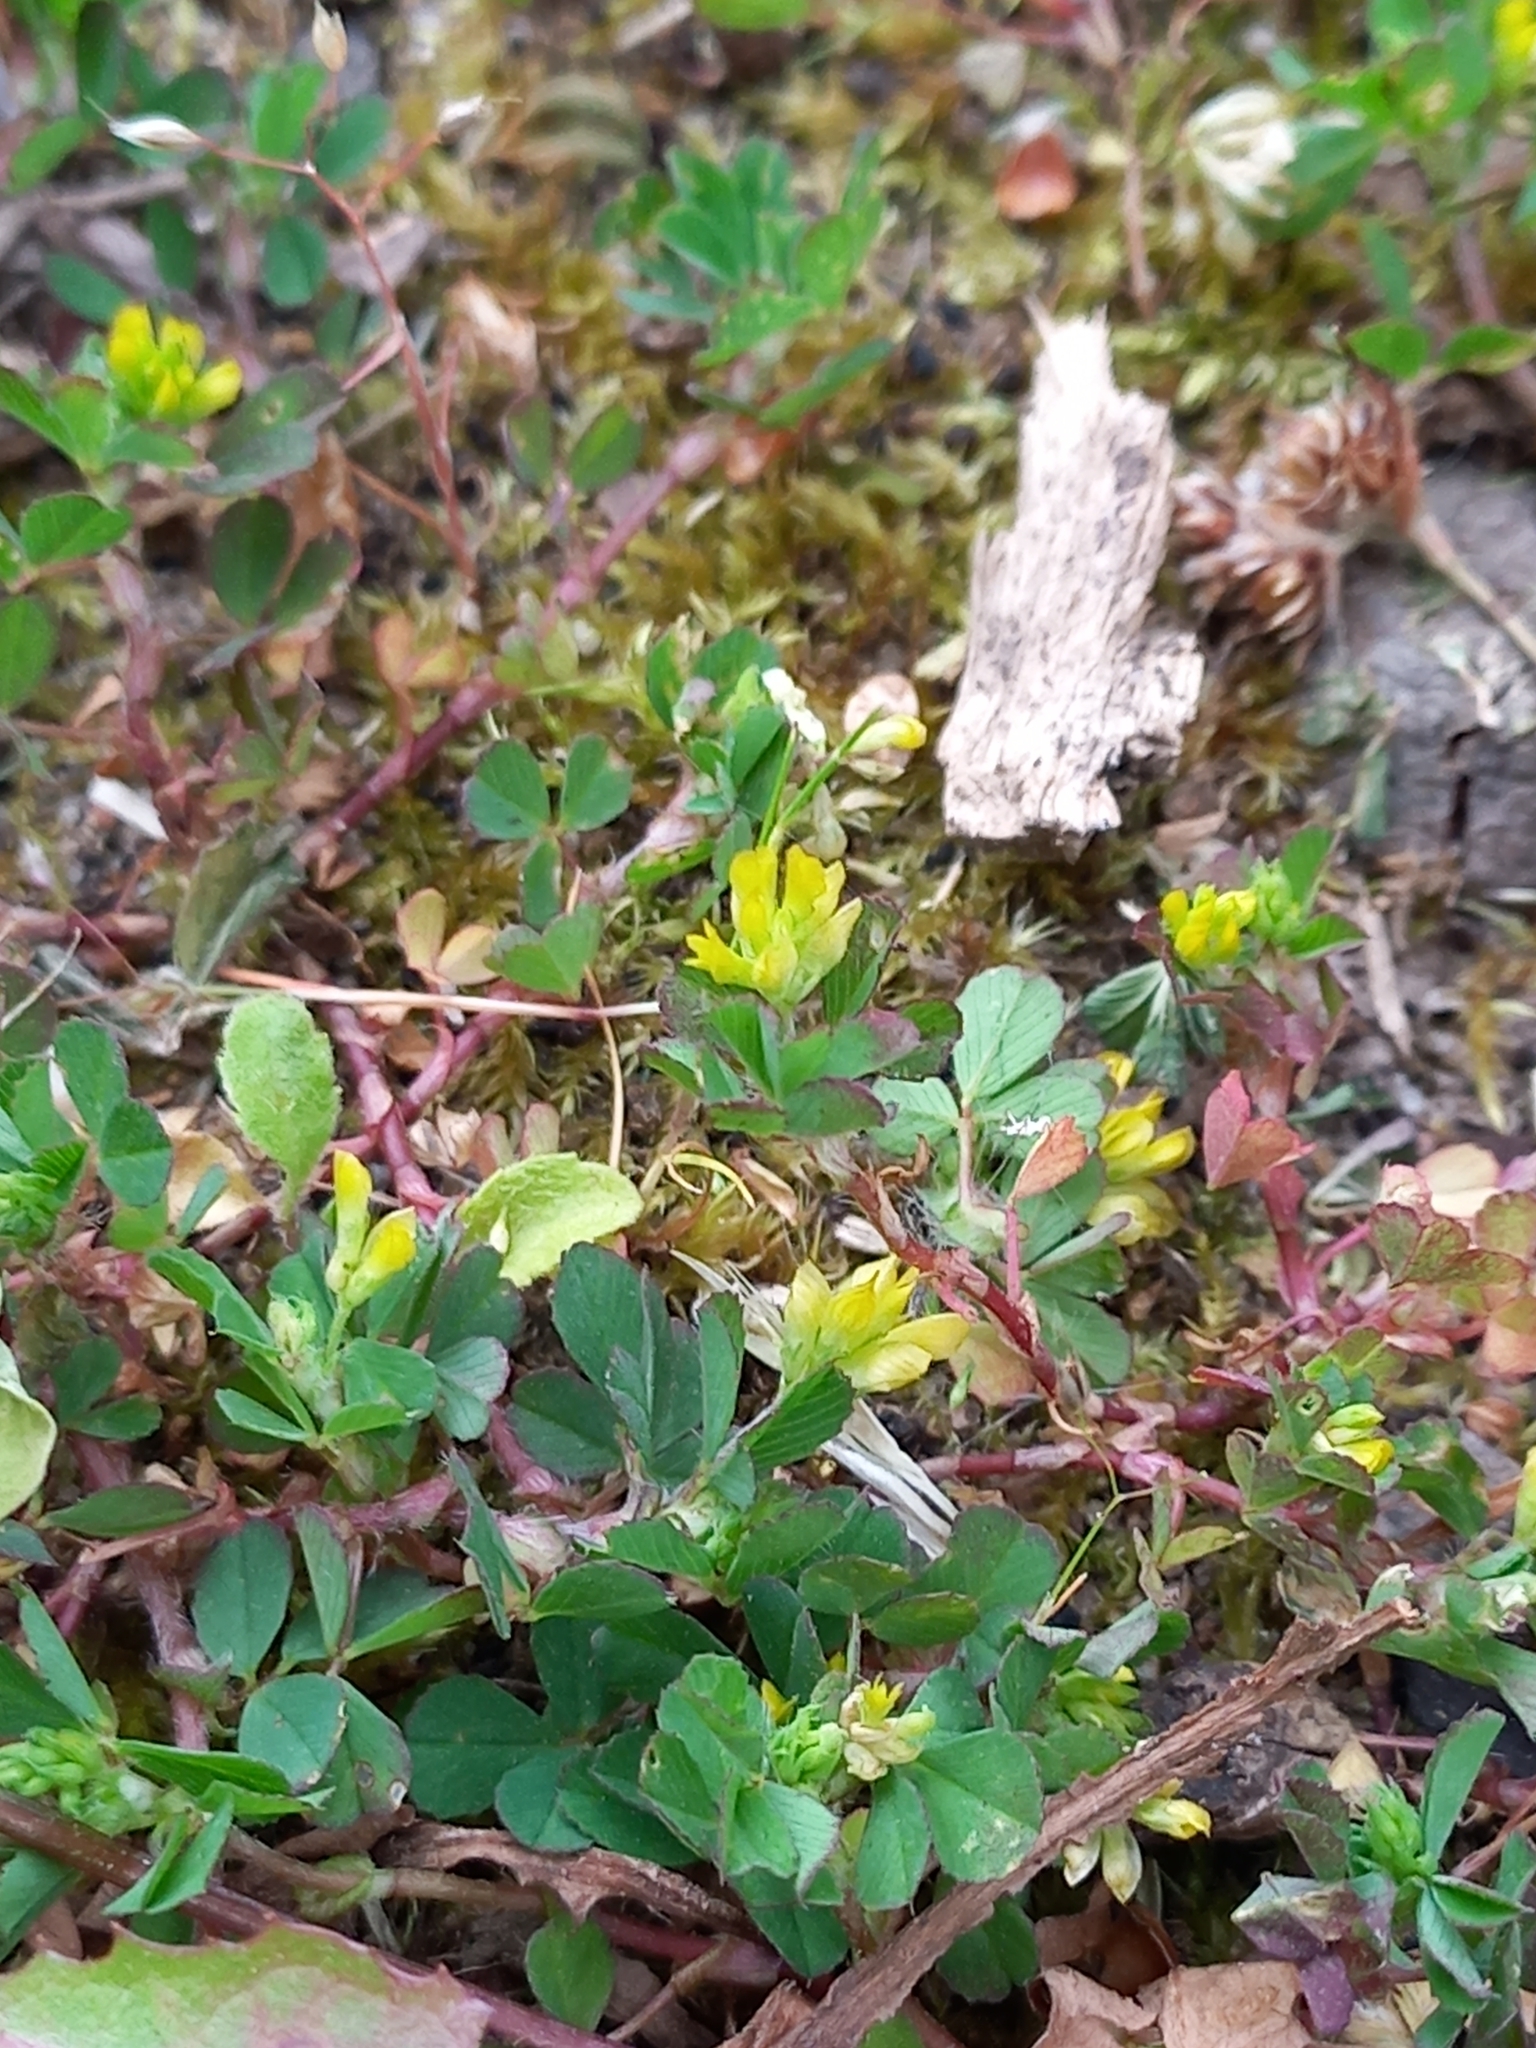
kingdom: Plantae
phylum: Tracheophyta
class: Magnoliopsida
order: Fabales
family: Fabaceae
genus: Trifolium
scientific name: Trifolium dubium
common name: Suckling clover
